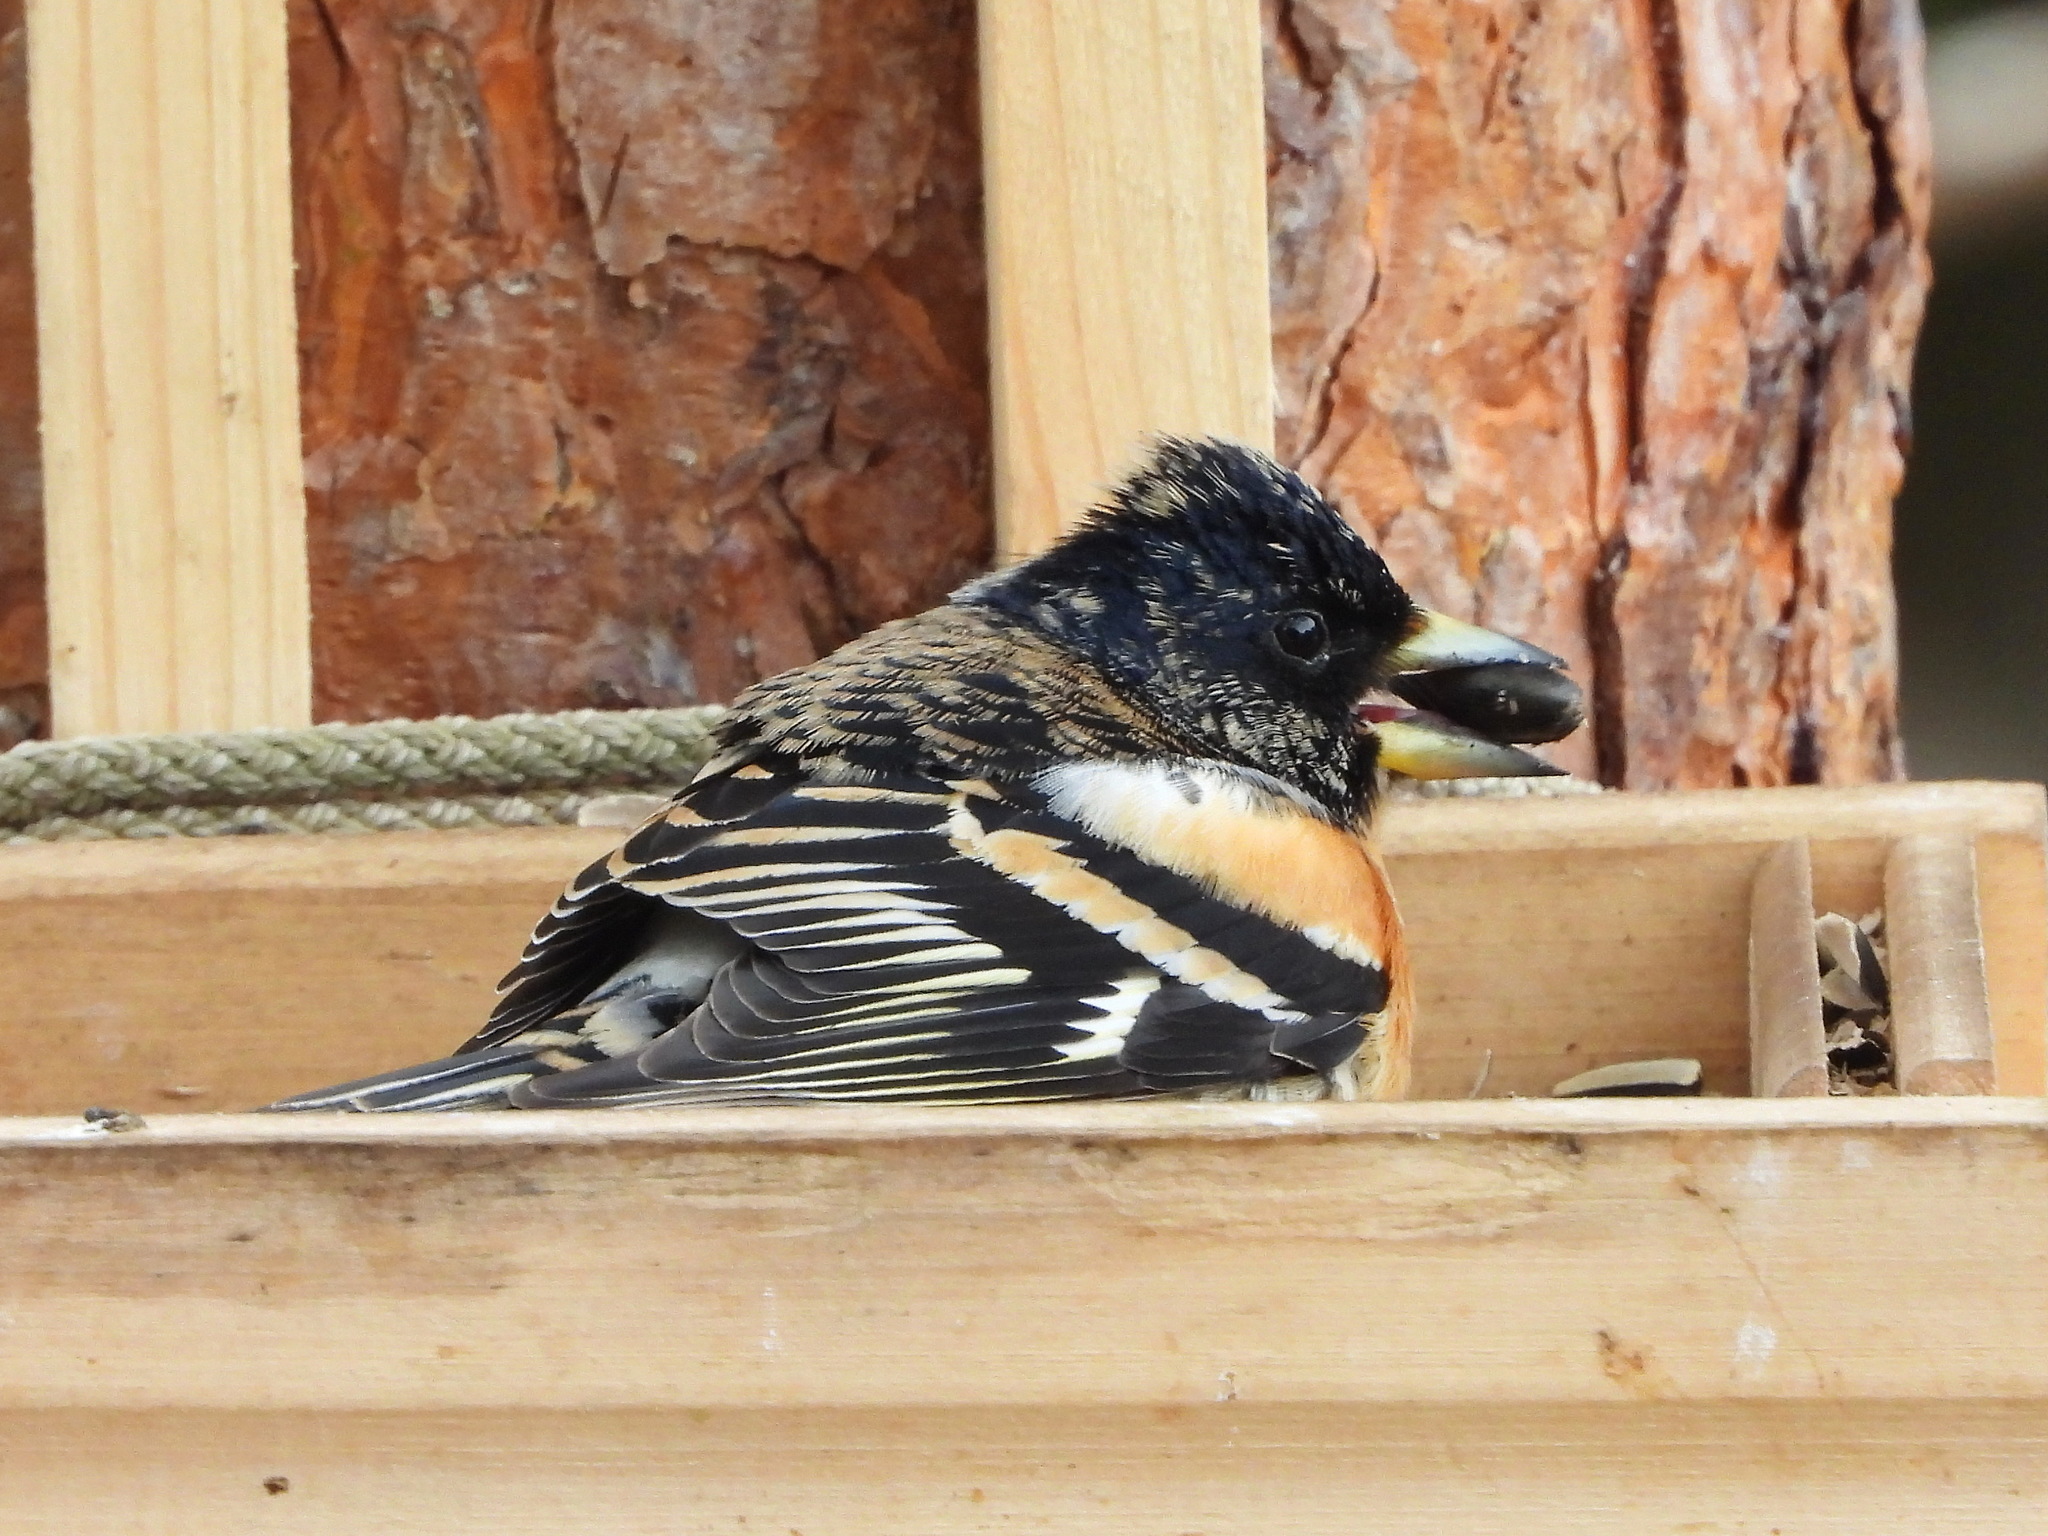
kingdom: Animalia
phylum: Chordata
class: Aves
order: Passeriformes
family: Fringillidae
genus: Fringilla
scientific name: Fringilla montifringilla
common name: Brambling
